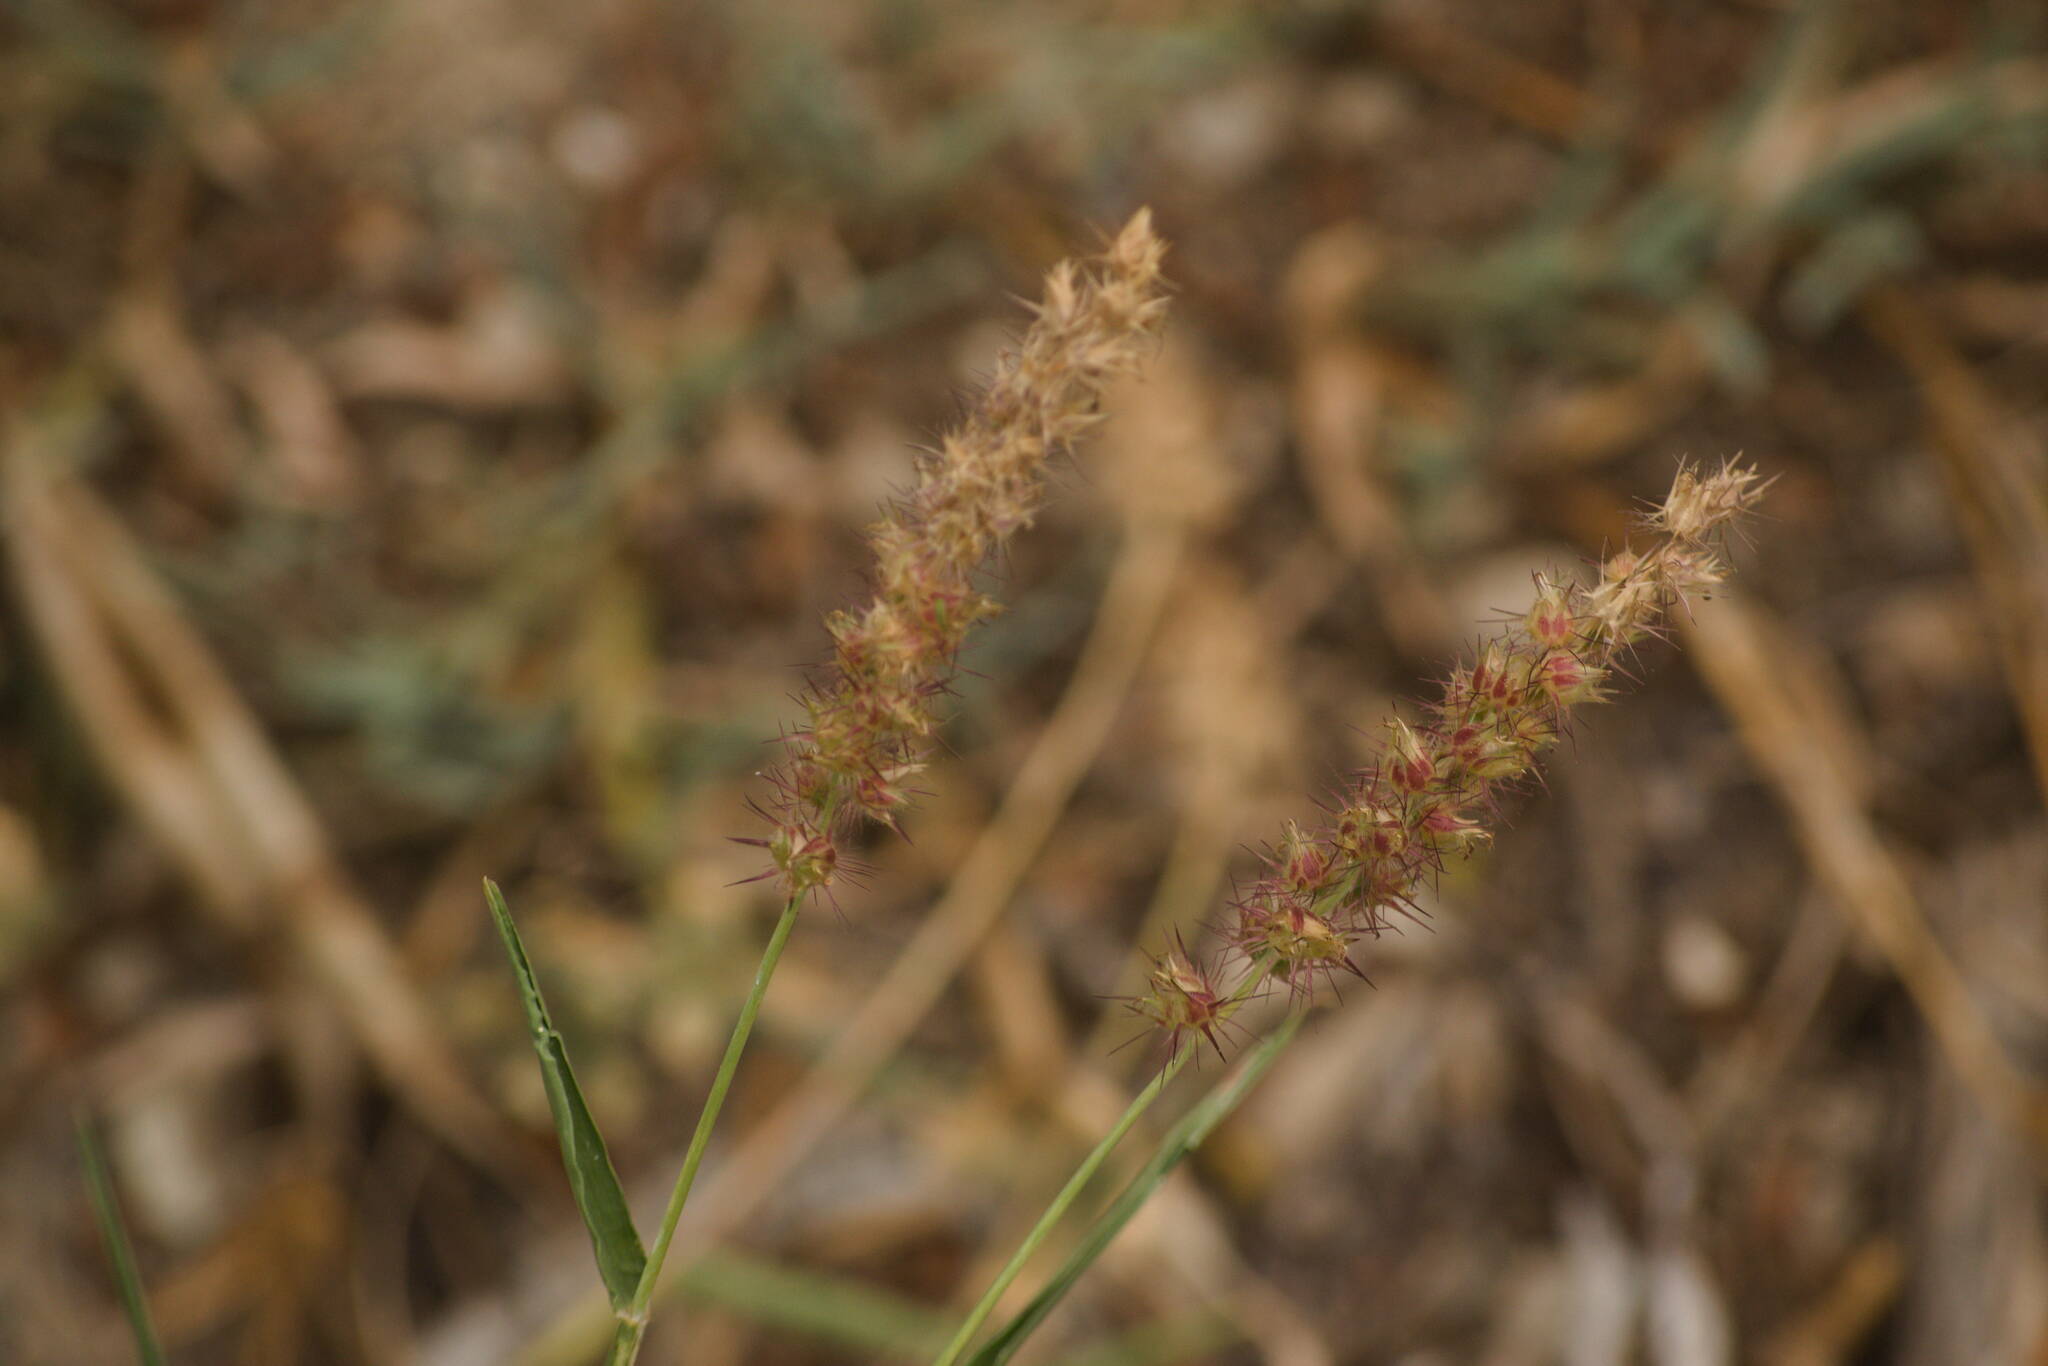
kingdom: Plantae
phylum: Tracheophyta
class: Liliopsida
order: Poales
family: Poaceae
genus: Cenchrus
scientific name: Cenchrus echinatus
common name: Southern sandbur
